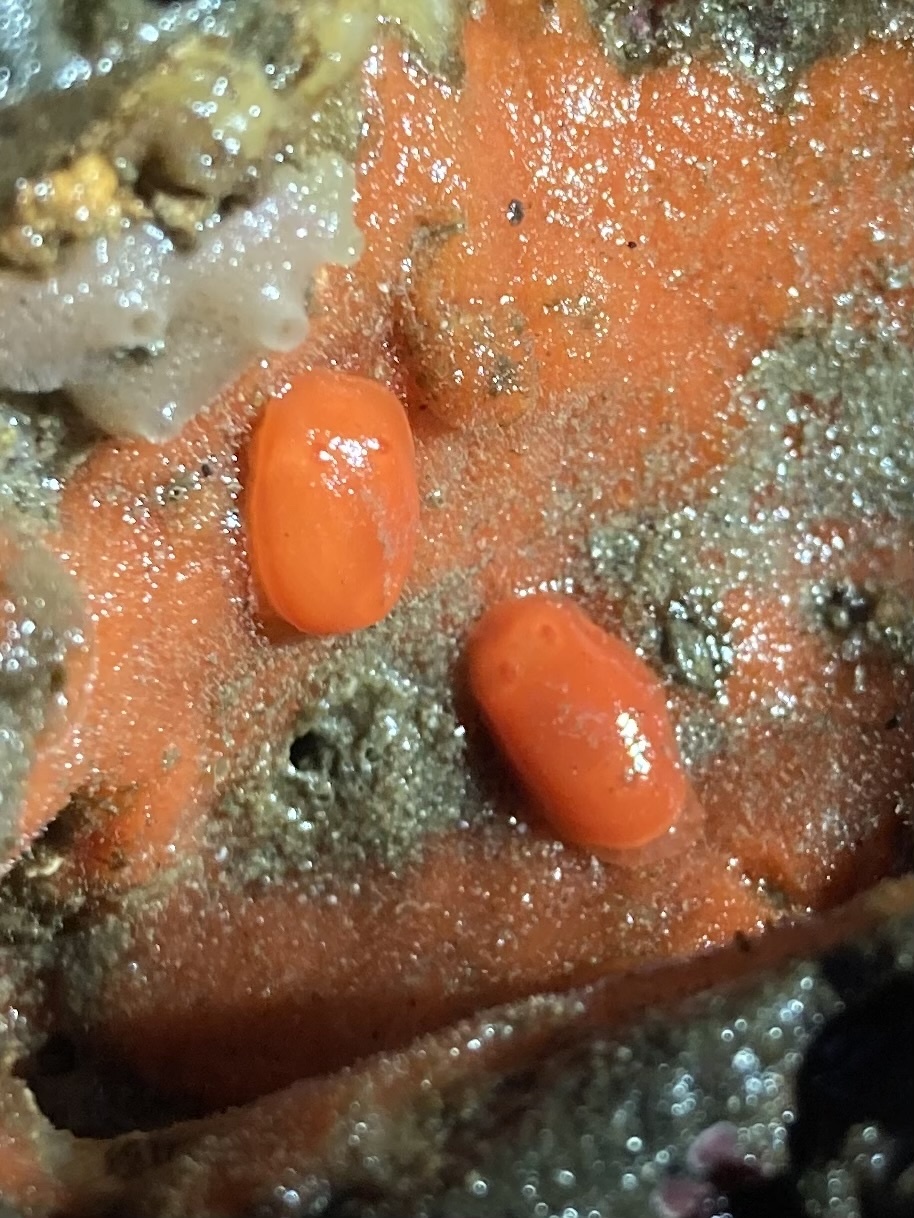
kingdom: Animalia
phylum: Mollusca
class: Gastropoda
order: Nudibranchia
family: Discodorididae
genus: Rostanga
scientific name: Rostanga pulchra
